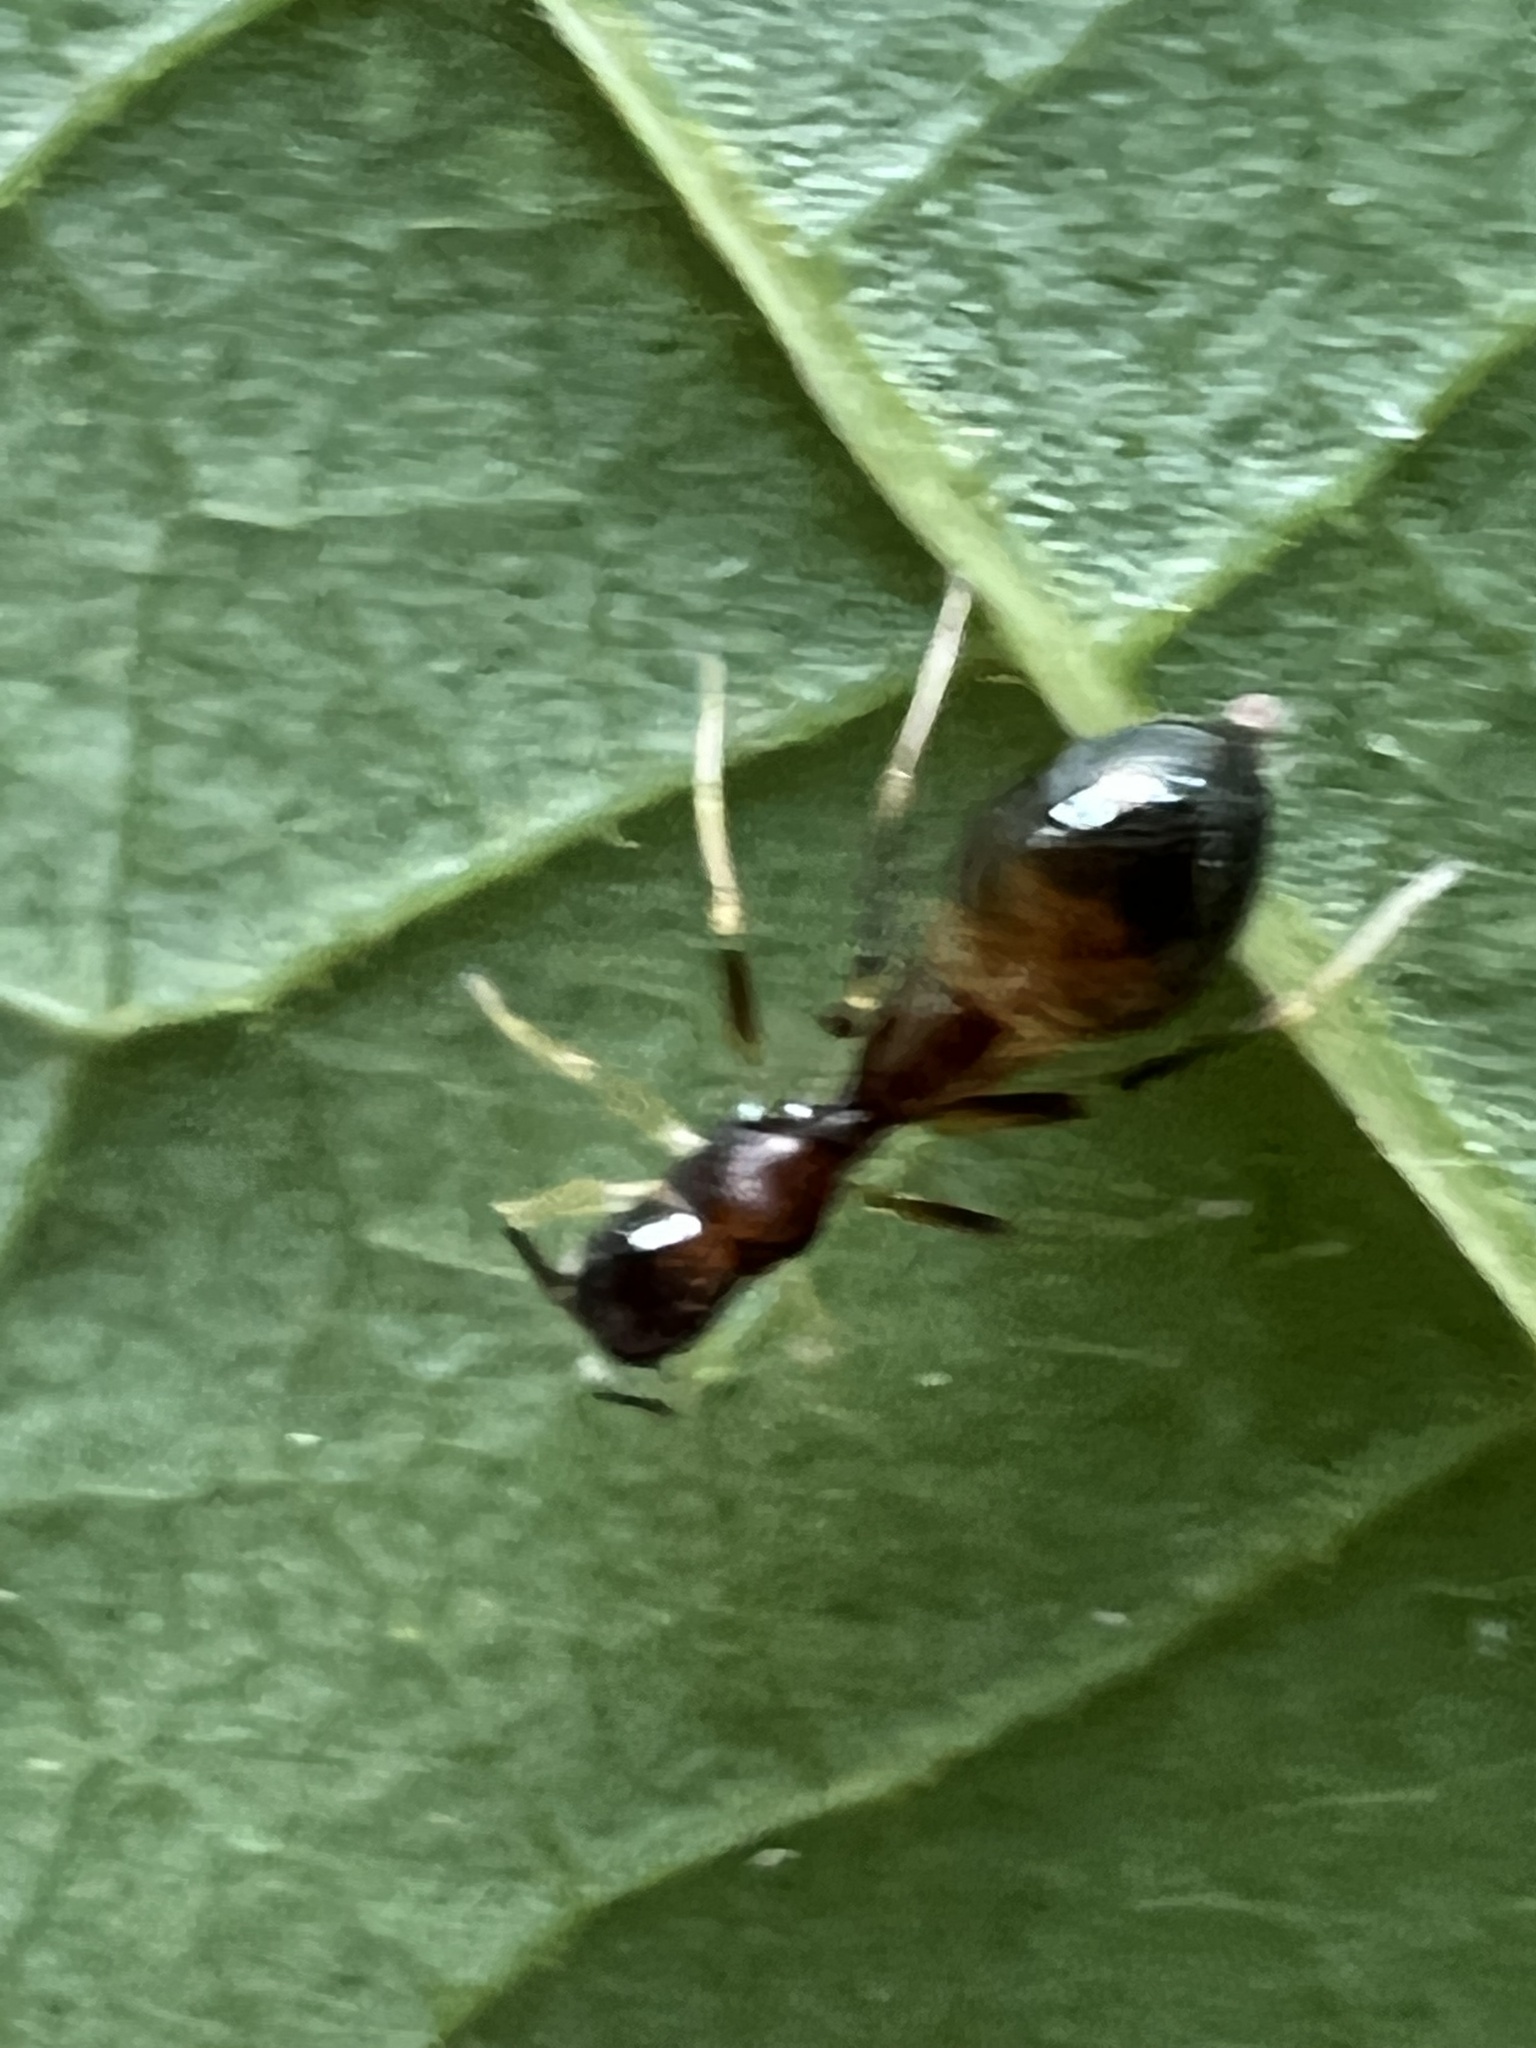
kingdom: Animalia
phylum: Arthropoda
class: Arachnida
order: Araneae
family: Salticidae
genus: Synemosyna
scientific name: Synemosyna formica
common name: Slender ant-mimic jumping spider
